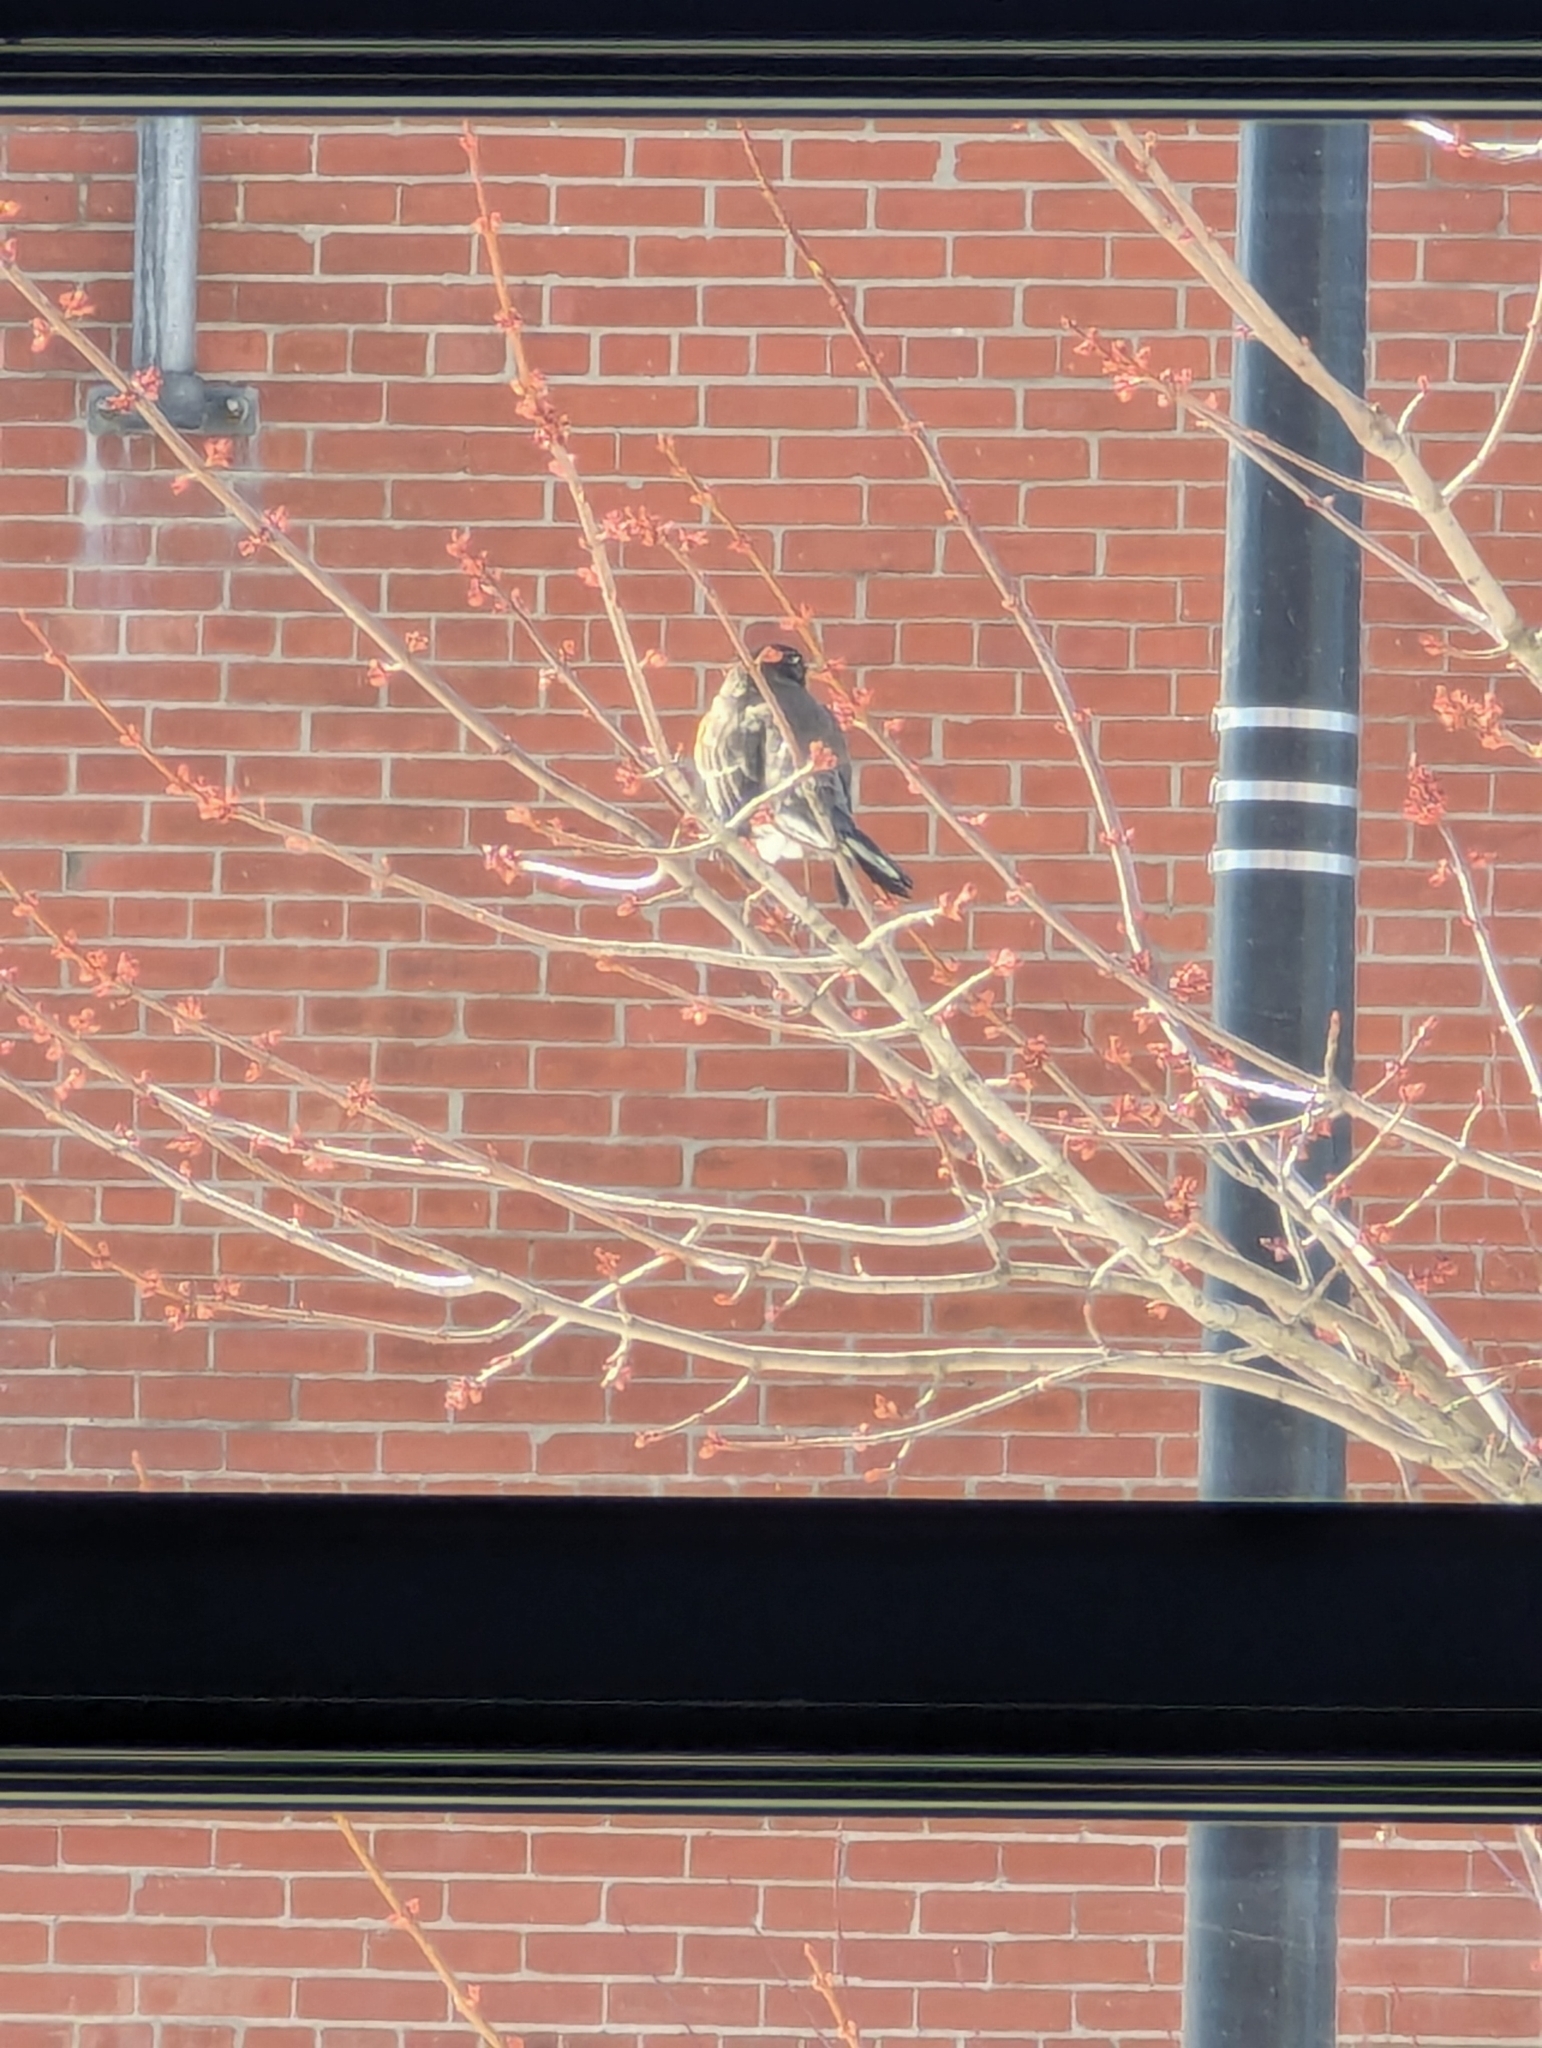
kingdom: Animalia
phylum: Chordata
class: Aves
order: Passeriformes
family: Turdidae
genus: Turdus
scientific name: Turdus migratorius
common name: American robin
